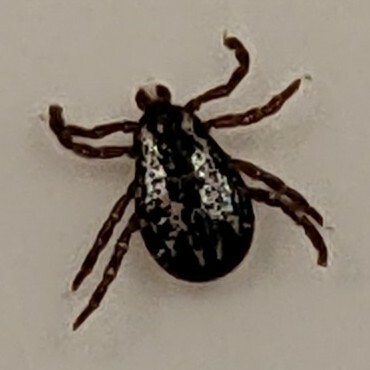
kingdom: Animalia
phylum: Arthropoda
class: Arachnida
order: Ixodida
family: Ixodidae
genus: Dermacentor
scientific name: Dermacentor variabilis
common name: American dog tick
